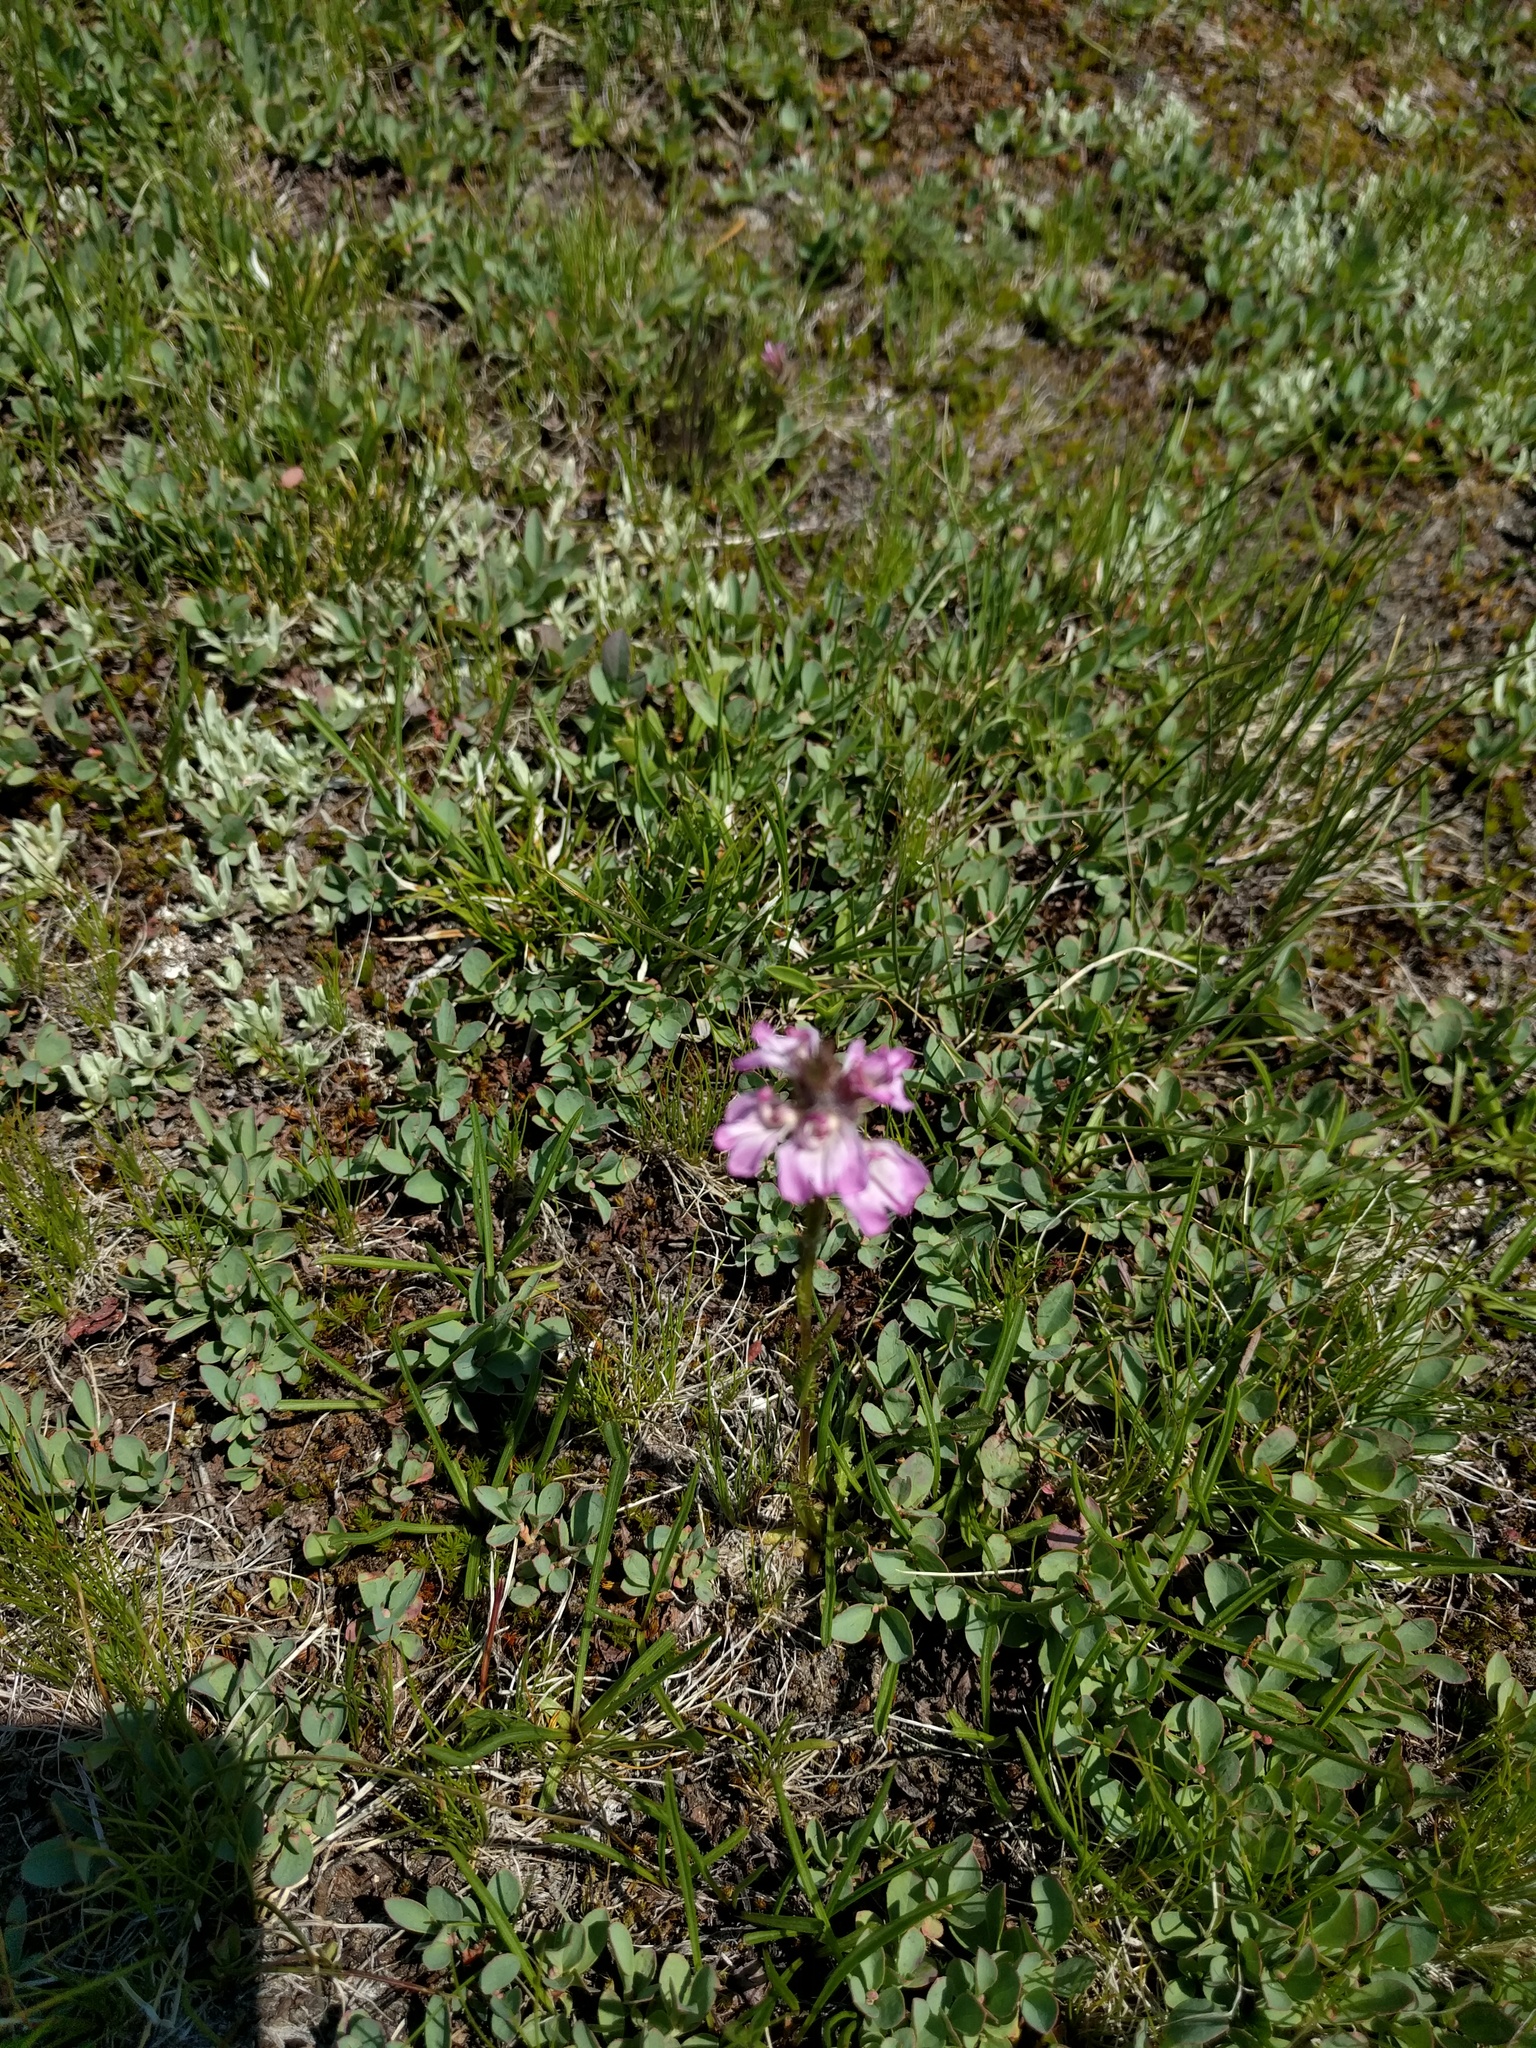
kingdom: Plantae
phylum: Tracheophyta
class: Magnoliopsida
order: Lamiales
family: Orobanchaceae
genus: Pedicularis
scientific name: Pedicularis attollens
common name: Slender pedicularis
